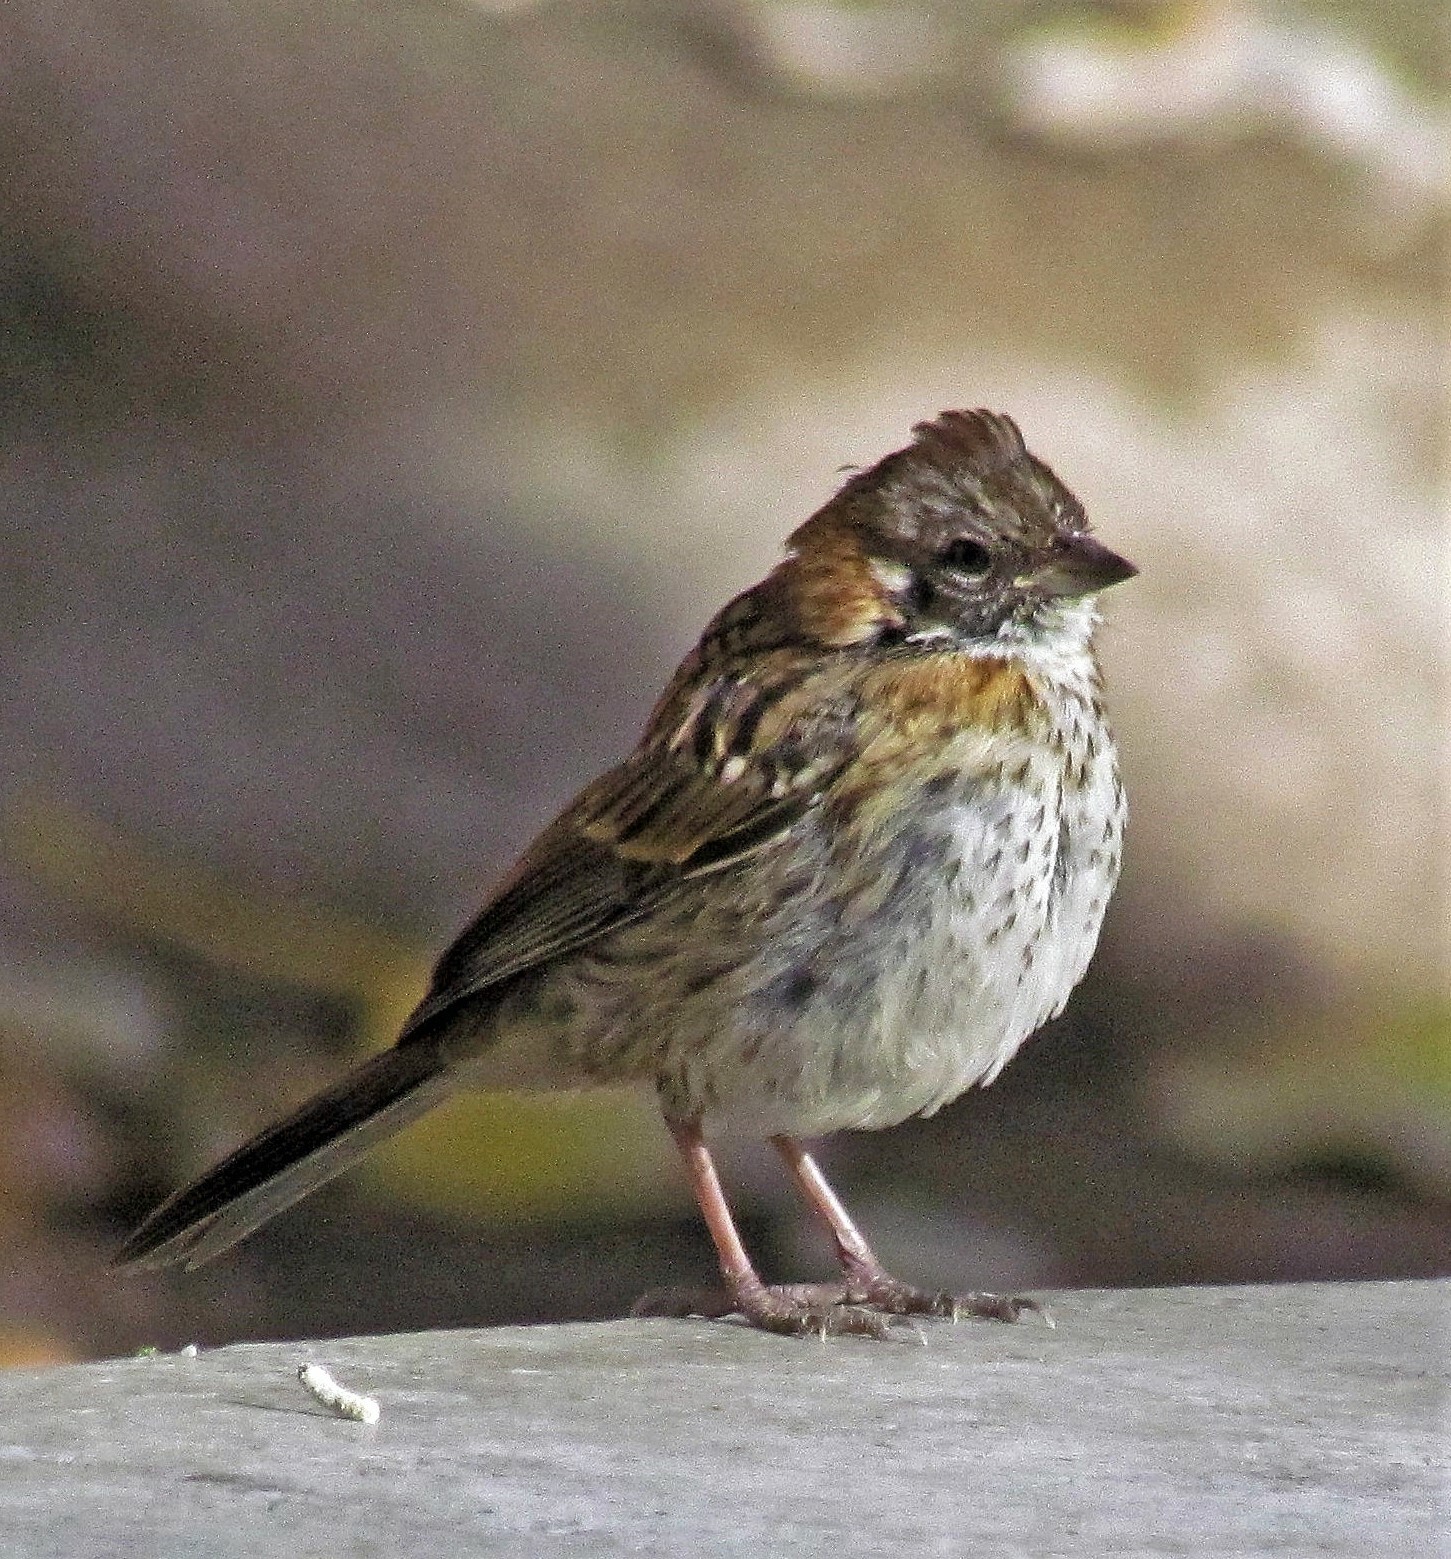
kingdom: Animalia
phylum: Chordata
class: Aves
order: Passeriformes
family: Passerellidae
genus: Zonotrichia
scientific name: Zonotrichia capensis
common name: Rufous-collared sparrow
